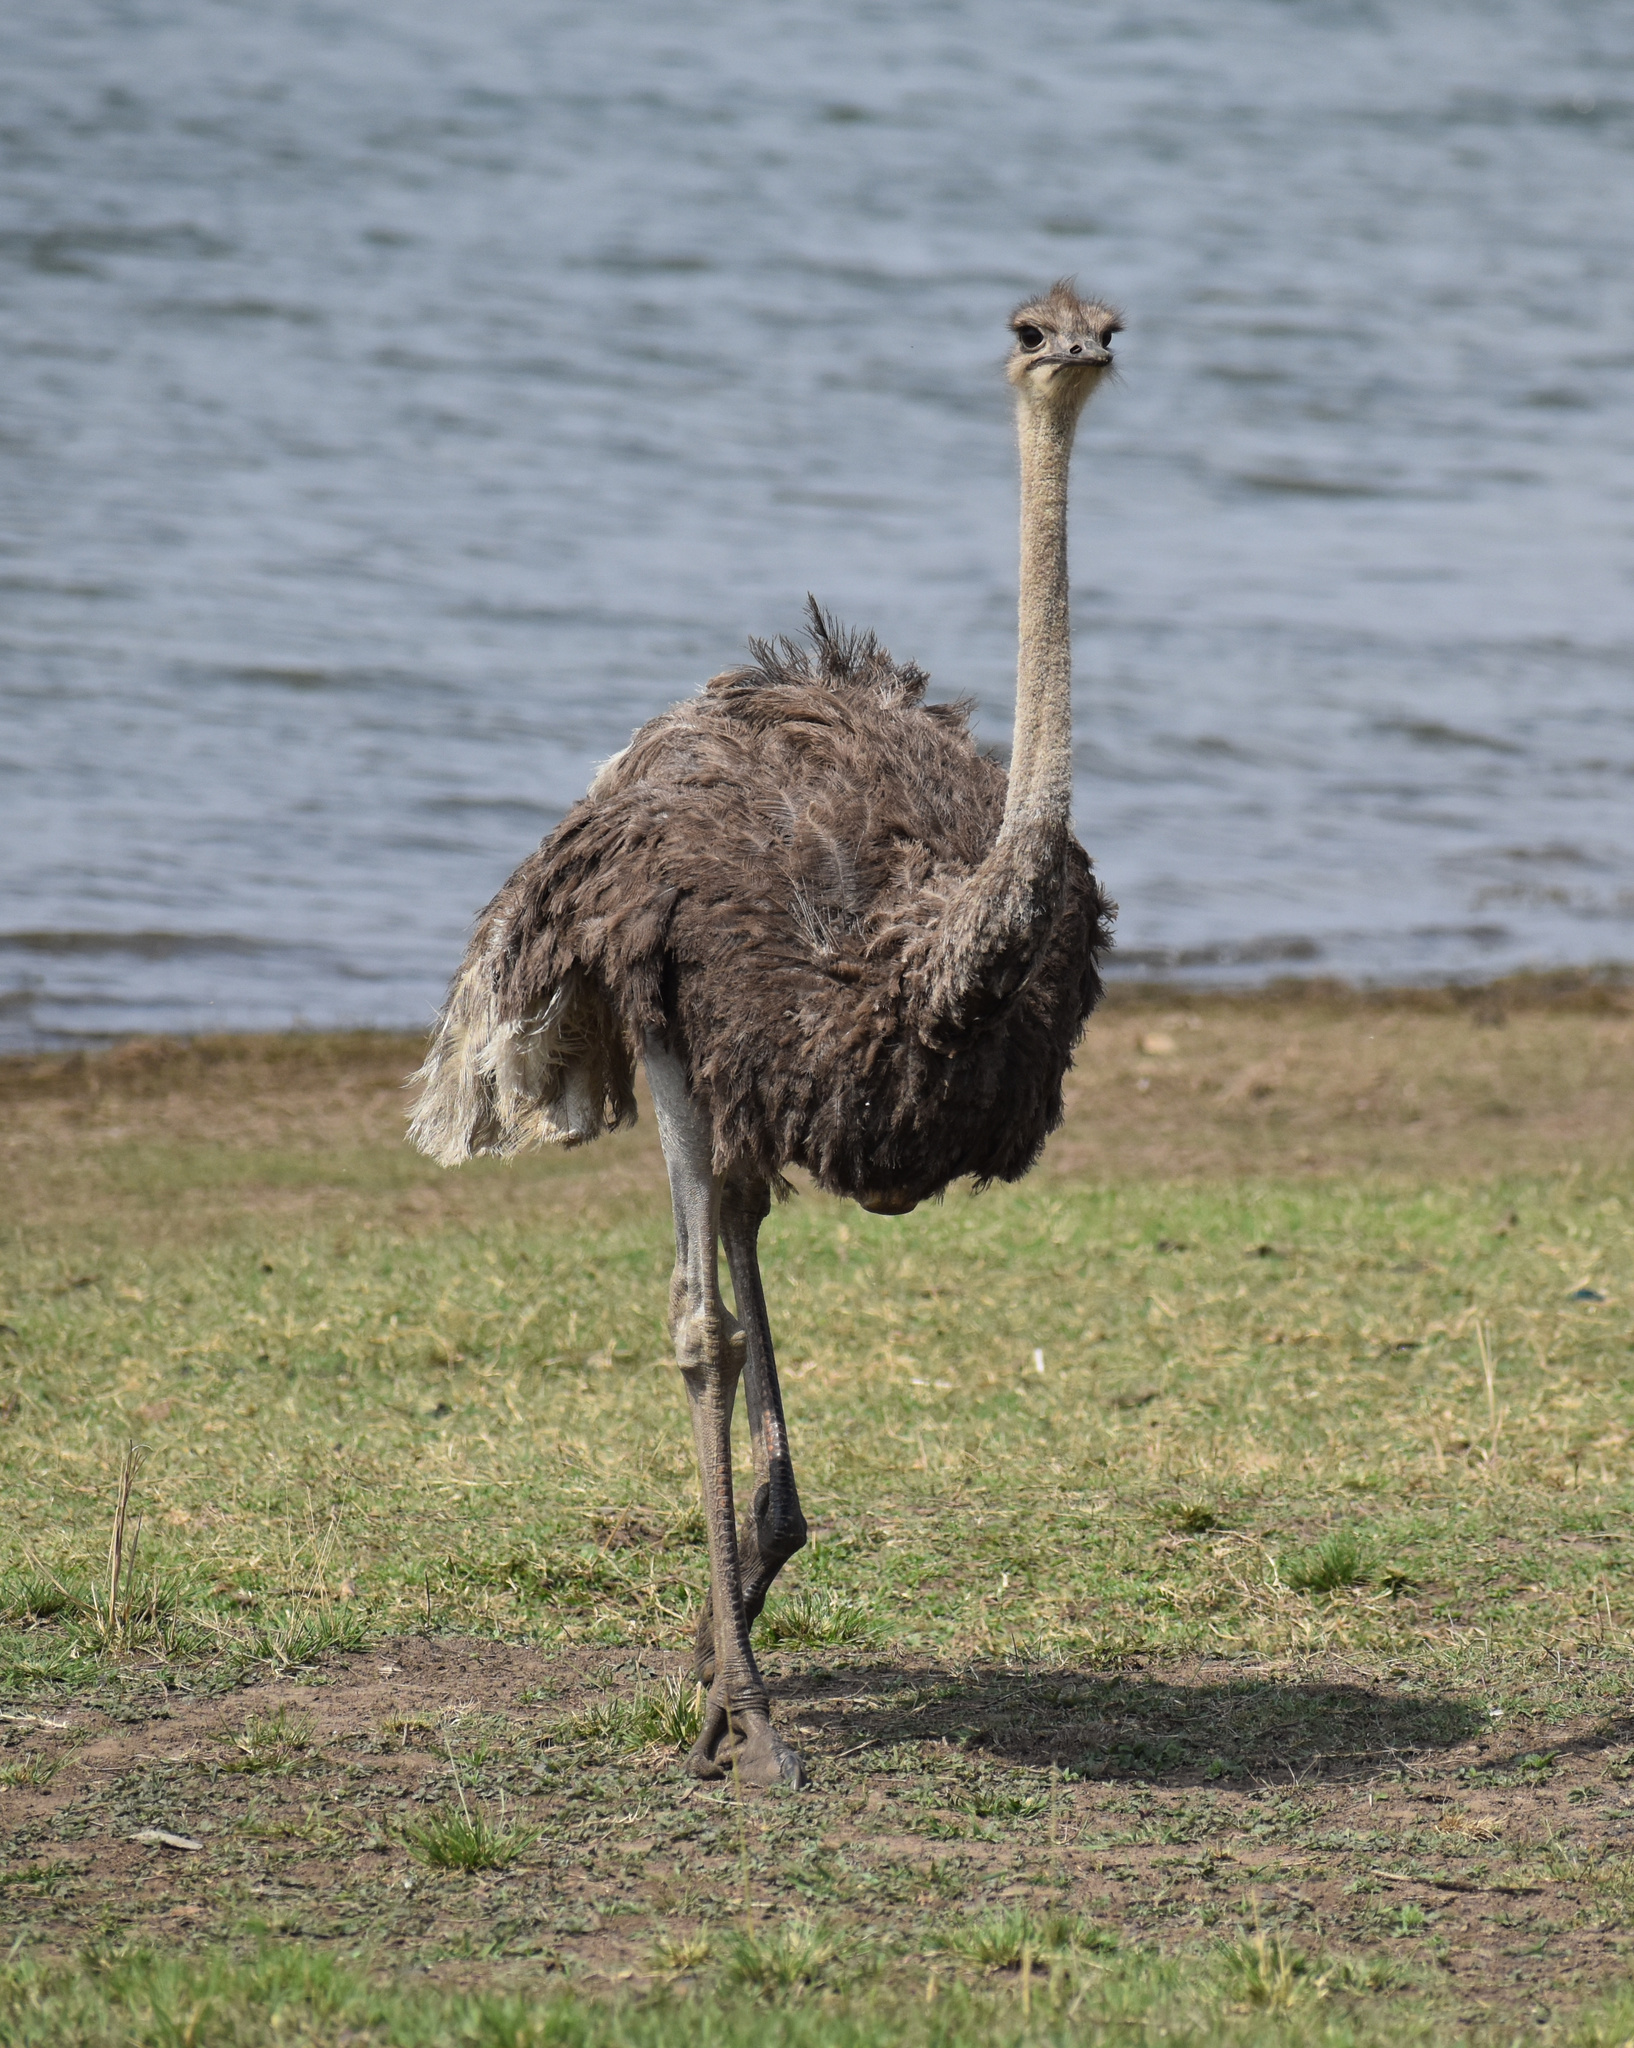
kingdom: Animalia
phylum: Chordata
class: Aves
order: Struthioniformes
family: Struthionidae
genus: Struthio
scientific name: Struthio camelus
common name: Common ostrich
